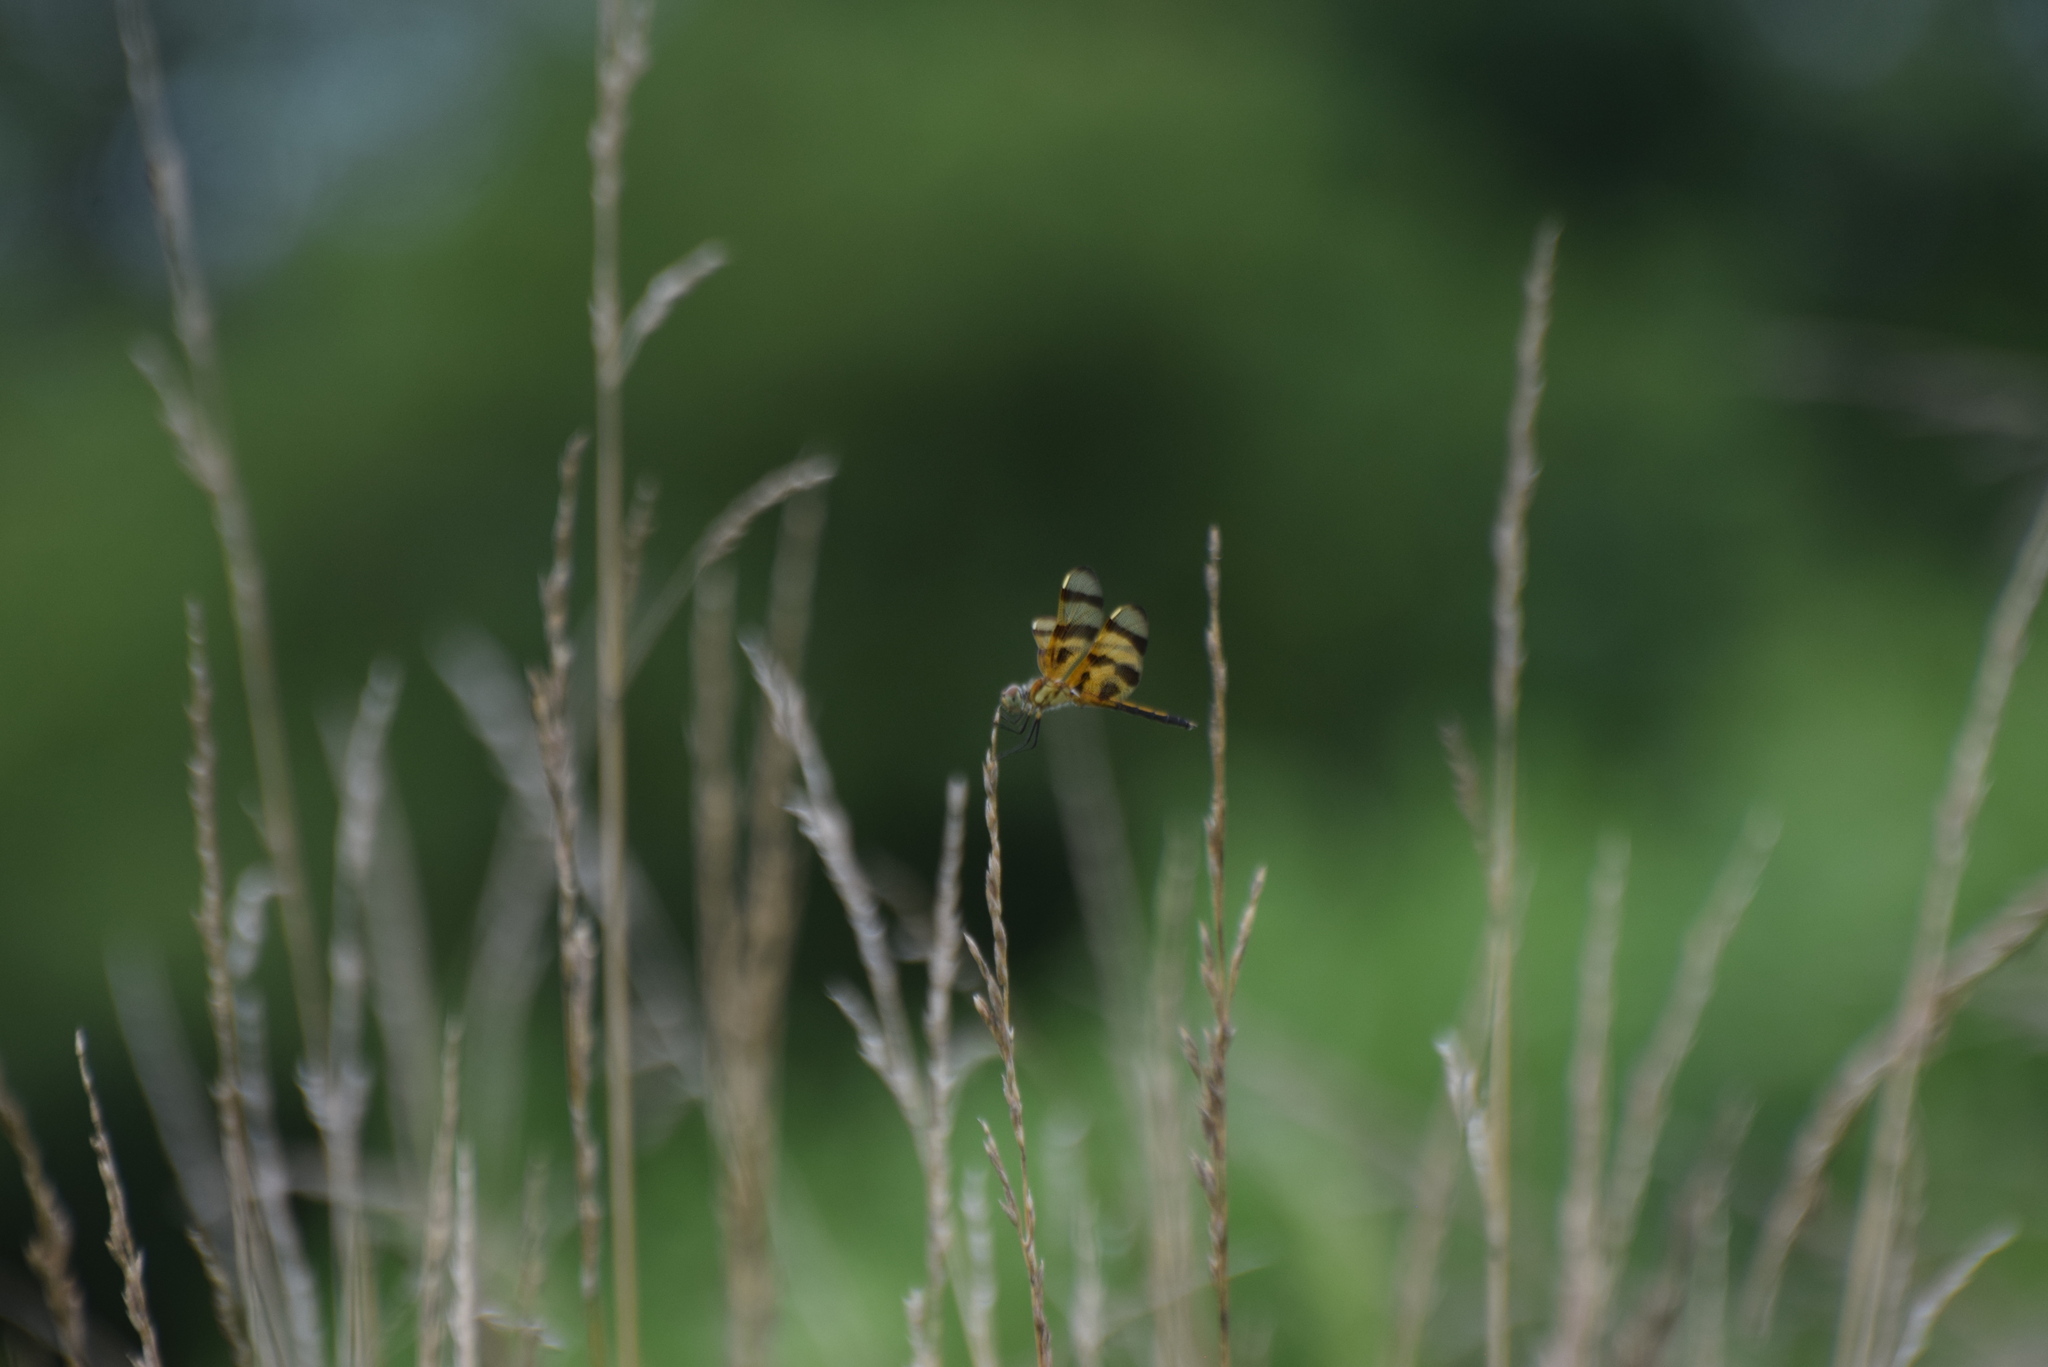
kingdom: Animalia
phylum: Arthropoda
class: Insecta
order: Odonata
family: Libellulidae
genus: Celithemis
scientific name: Celithemis eponina
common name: Halloween pennant
